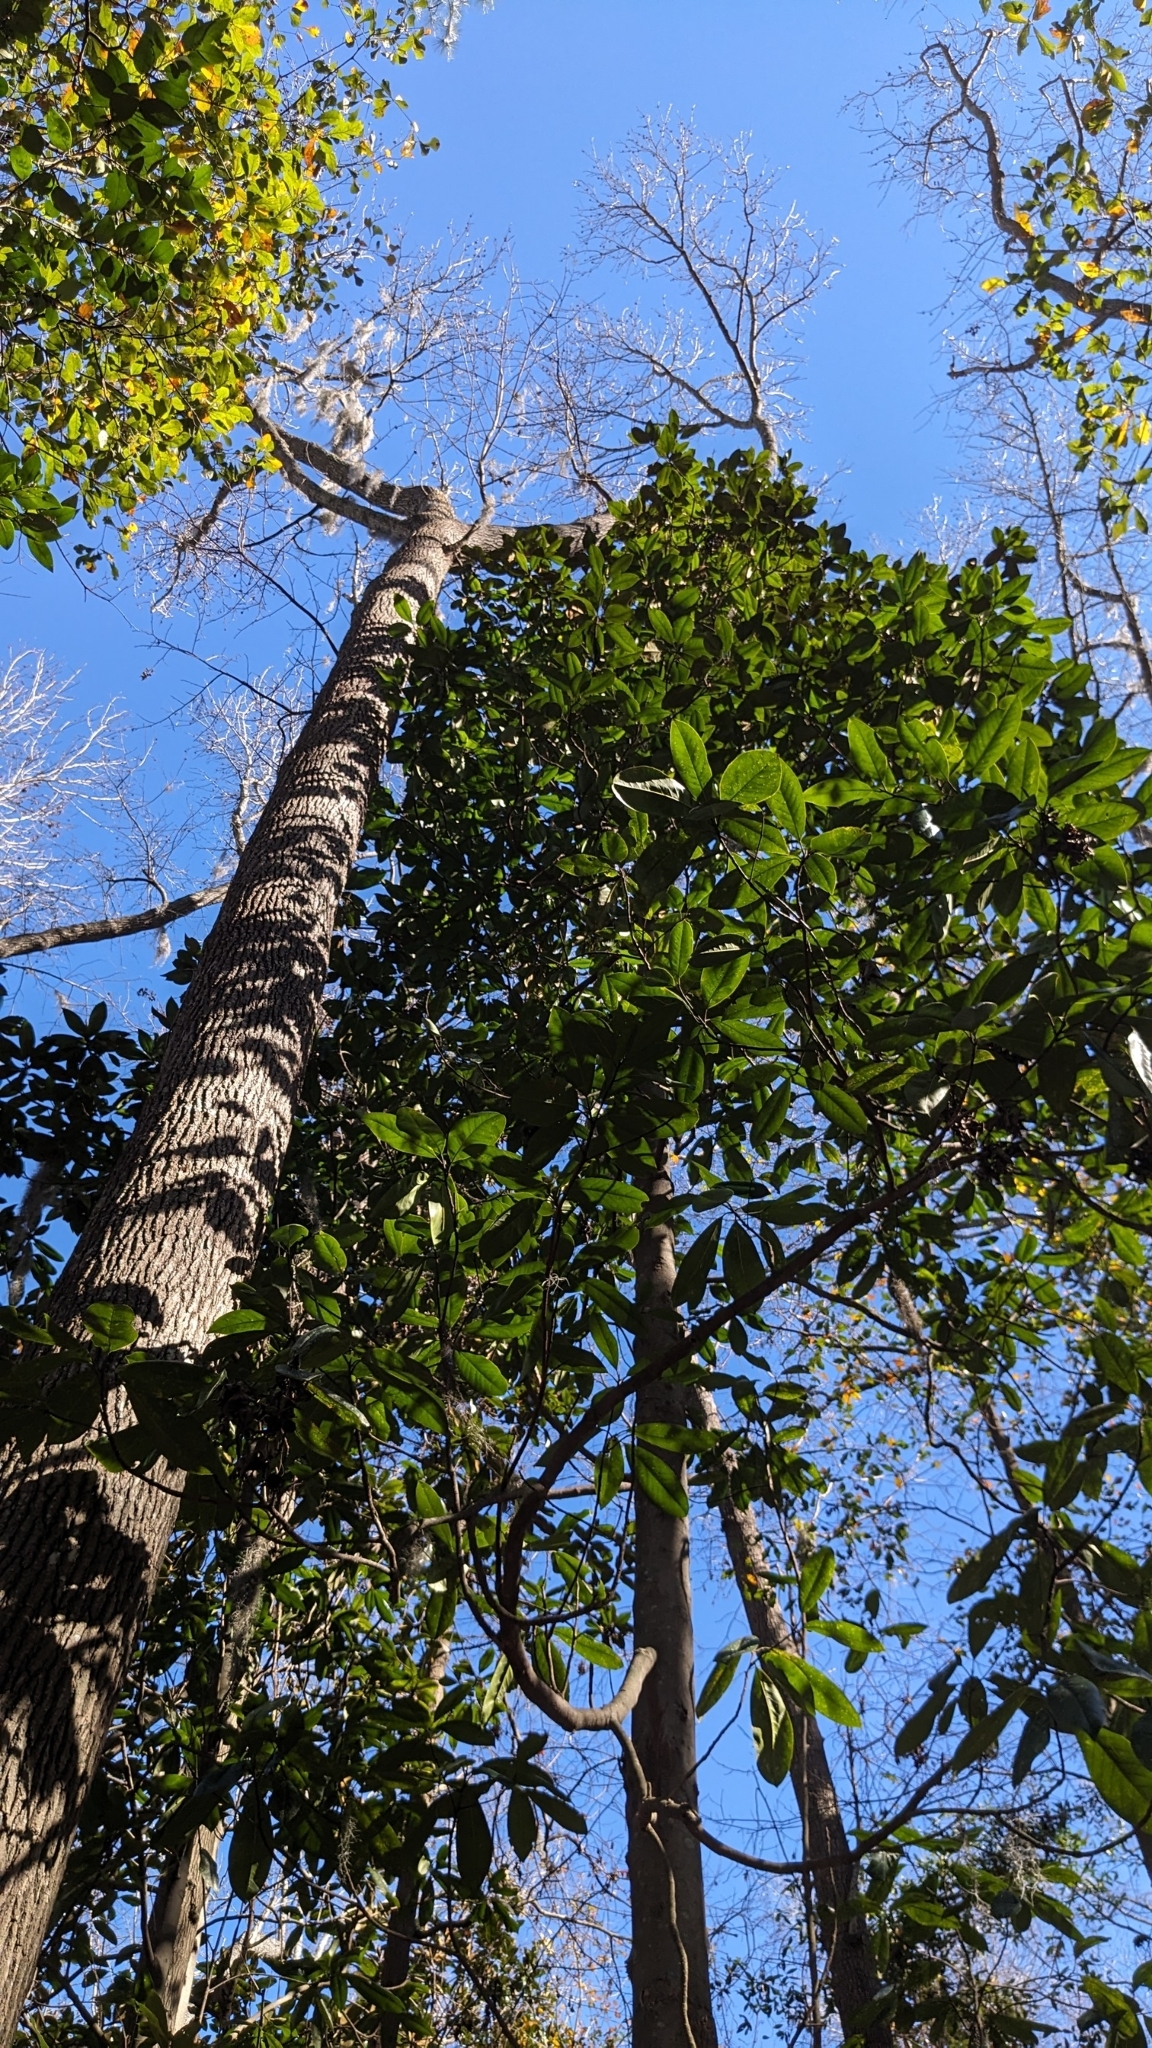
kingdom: Plantae
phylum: Tracheophyta
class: Magnoliopsida
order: Magnoliales
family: Magnoliaceae
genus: Magnolia
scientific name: Magnolia grandiflora
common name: Southern magnolia
